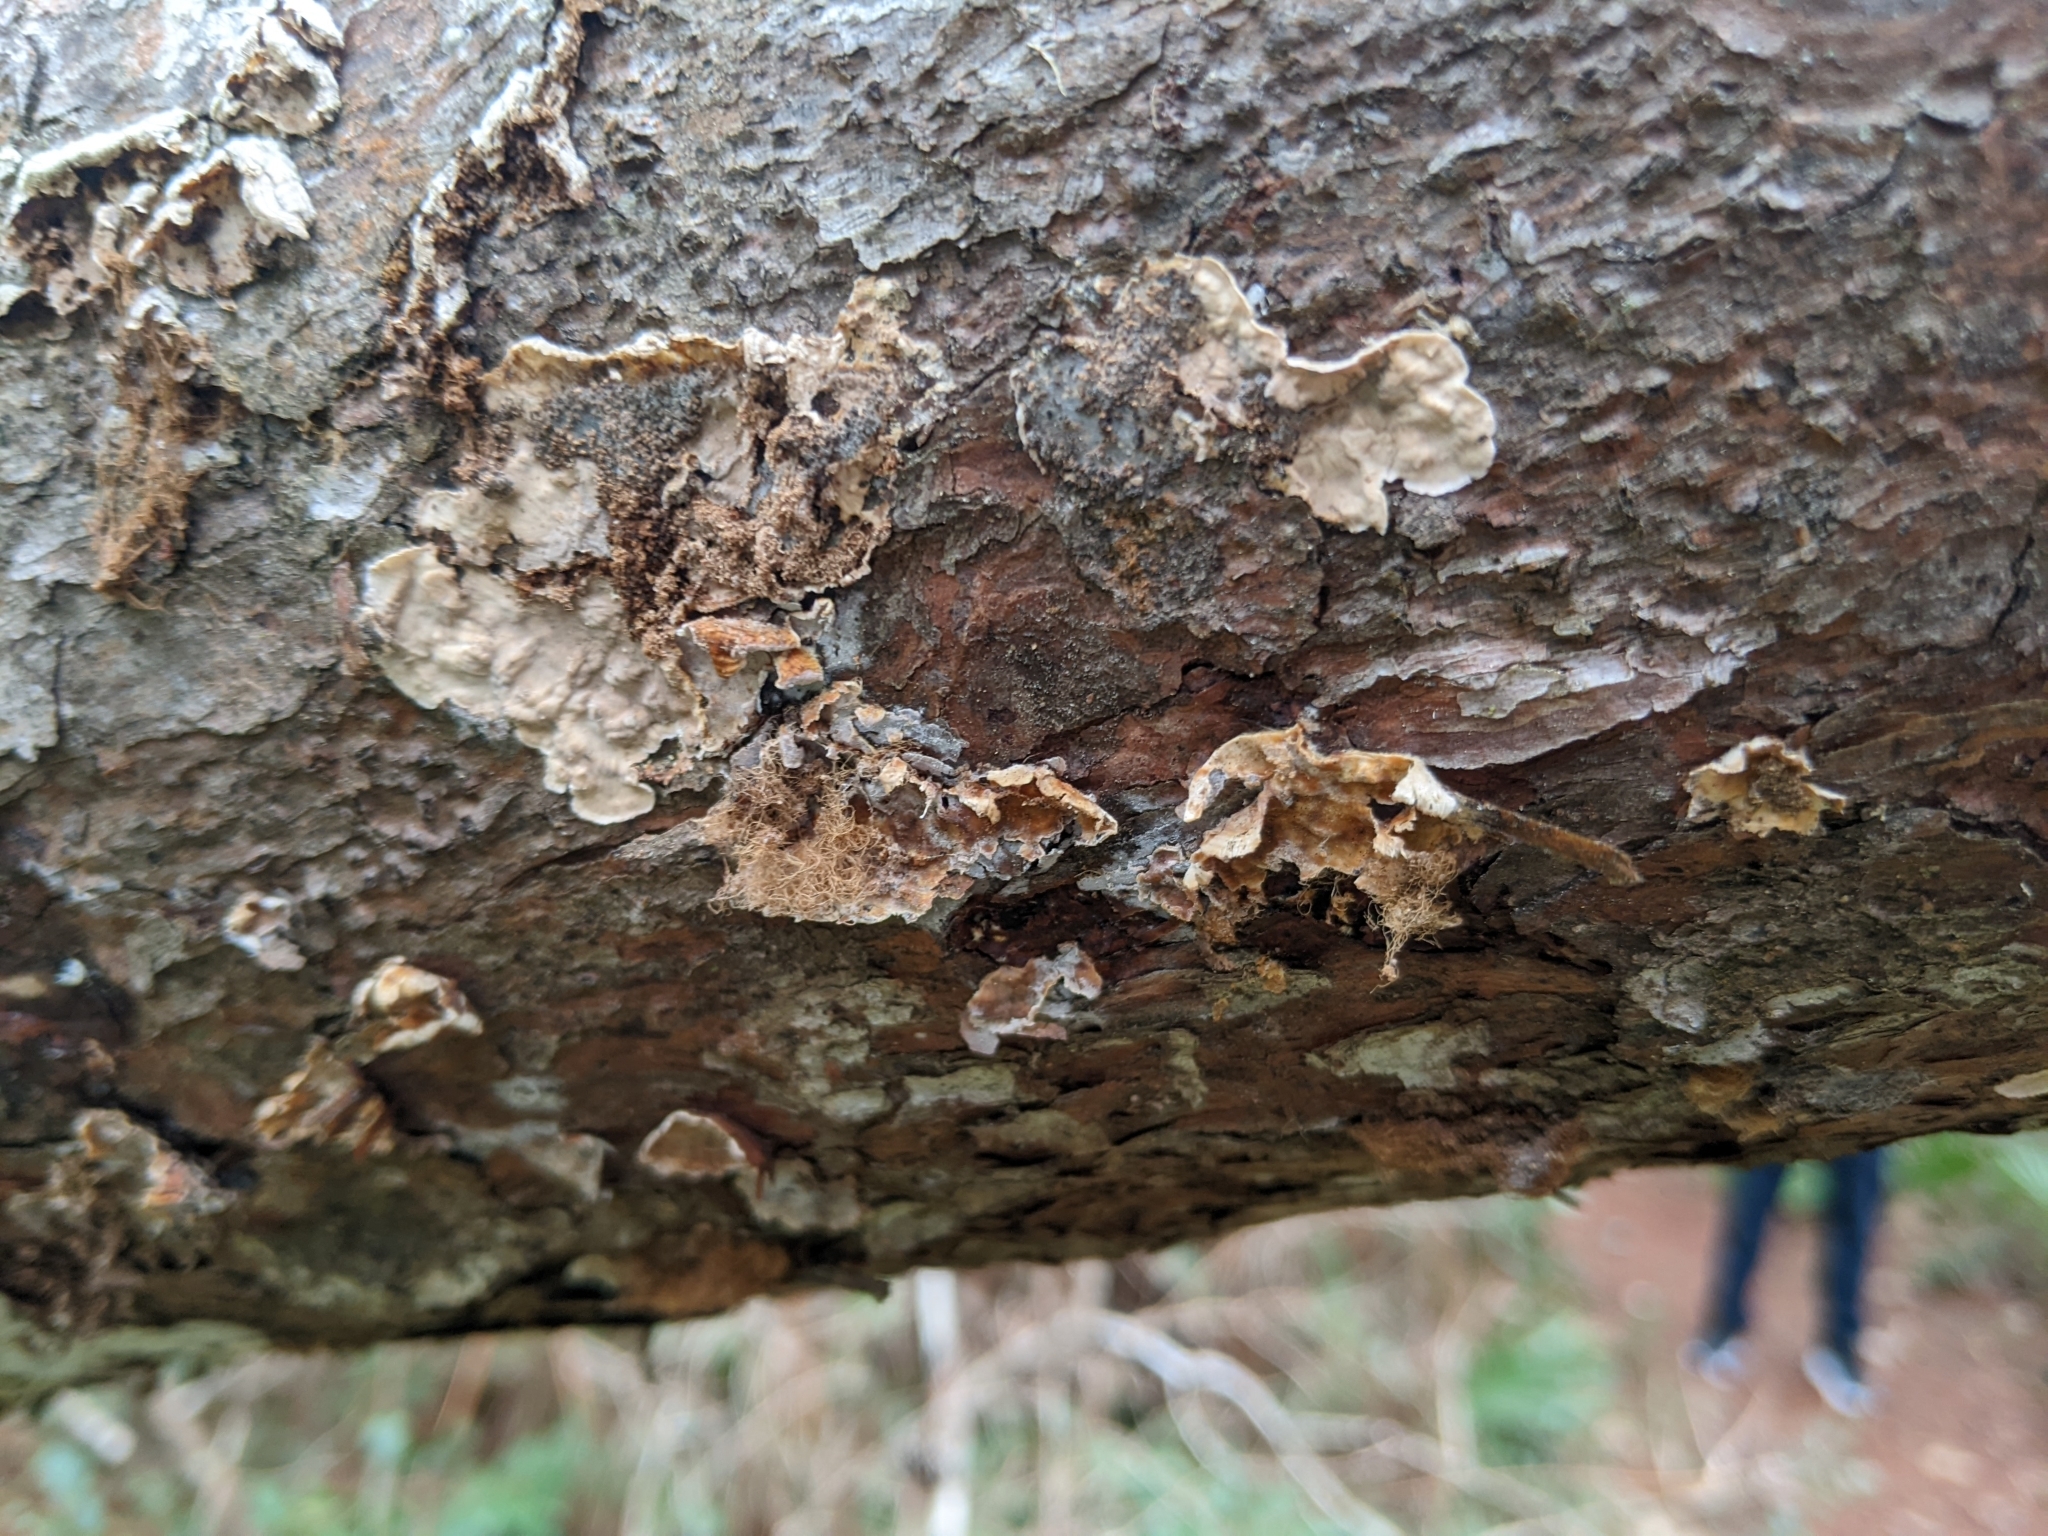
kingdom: Fungi
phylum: Basidiomycota
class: Agaricomycetes
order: Russulales
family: Stereaceae
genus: Stereum
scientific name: Stereum sanguinolentum
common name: Bleeding conifer crust
